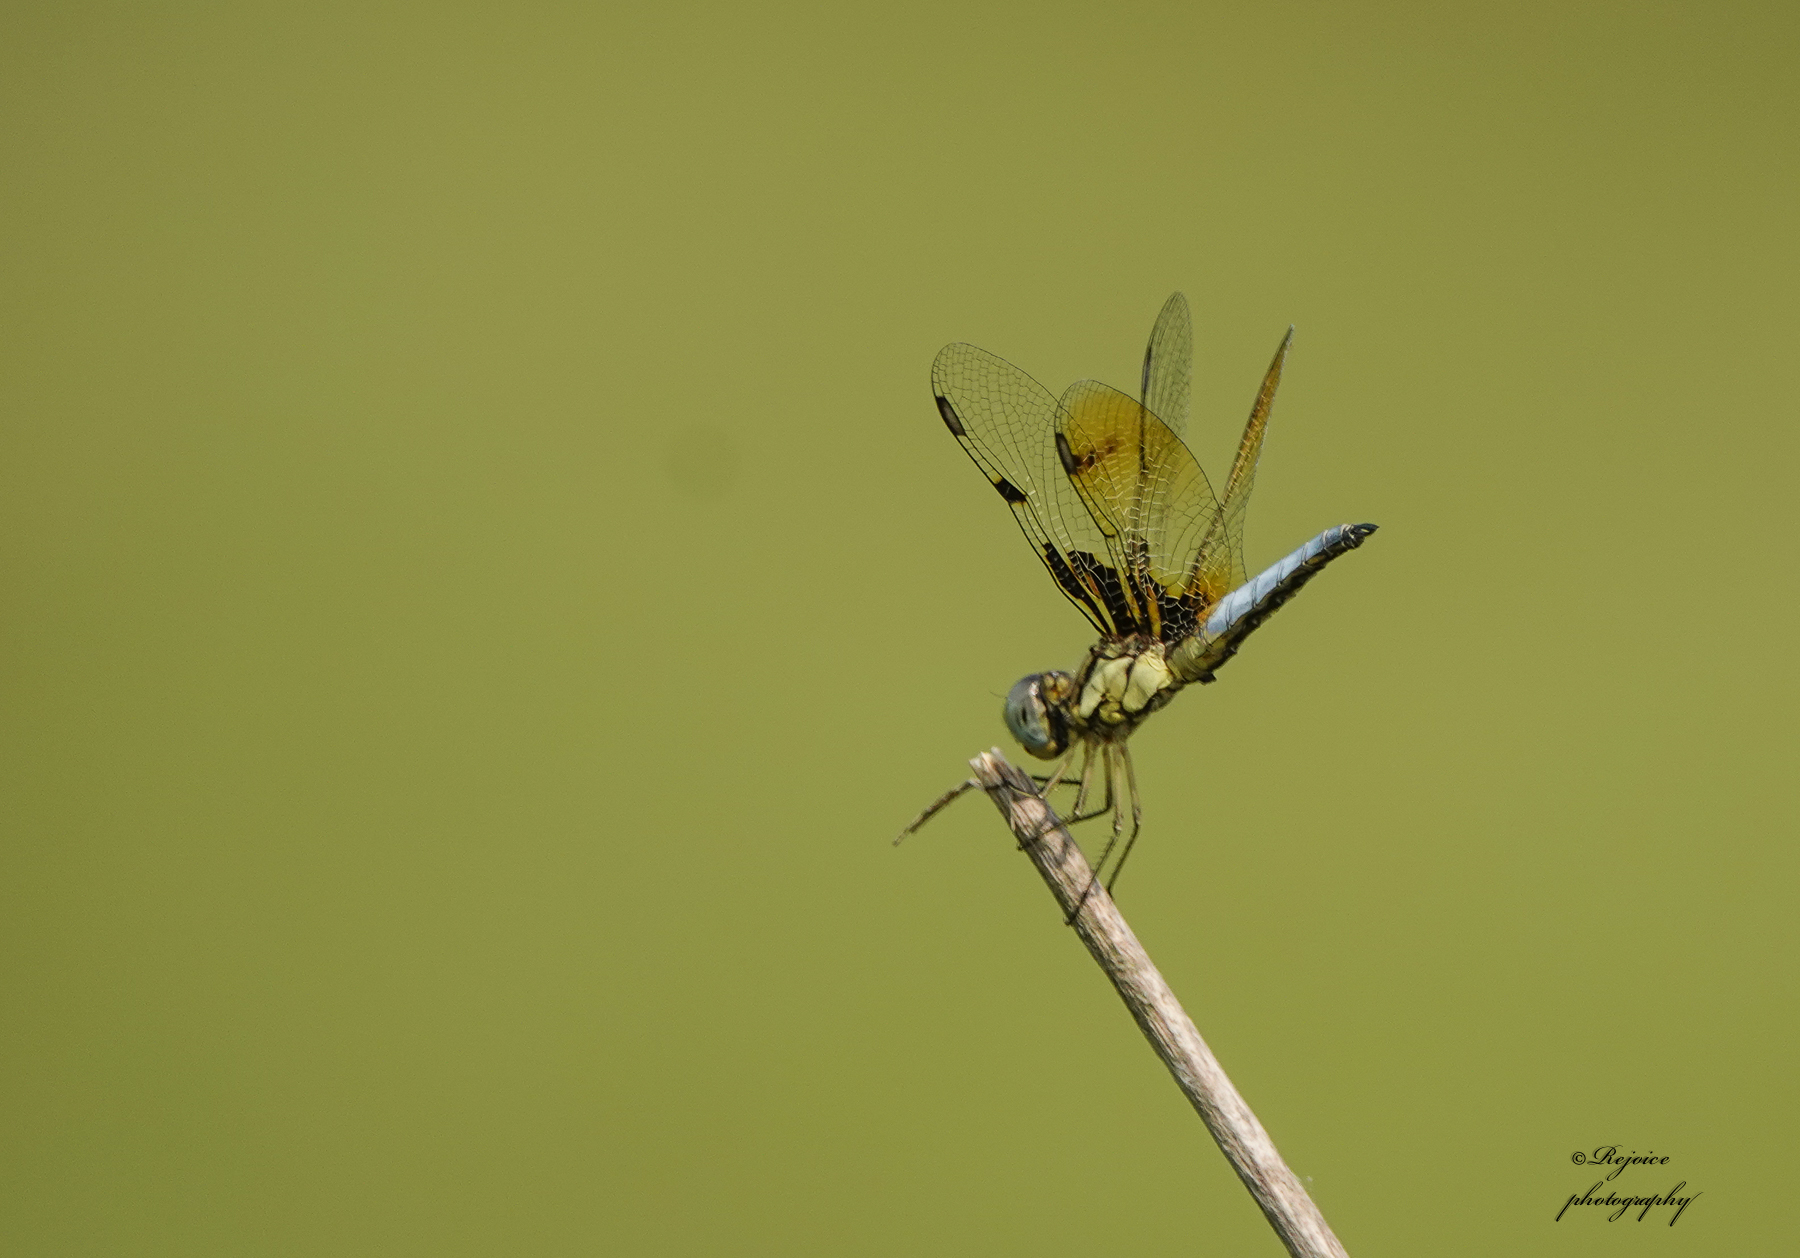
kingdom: Animalia
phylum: Arthropoda
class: Insecta
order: Odonata
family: Libellulidae
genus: Palpopleura
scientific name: Palpopleura sexmaculata
